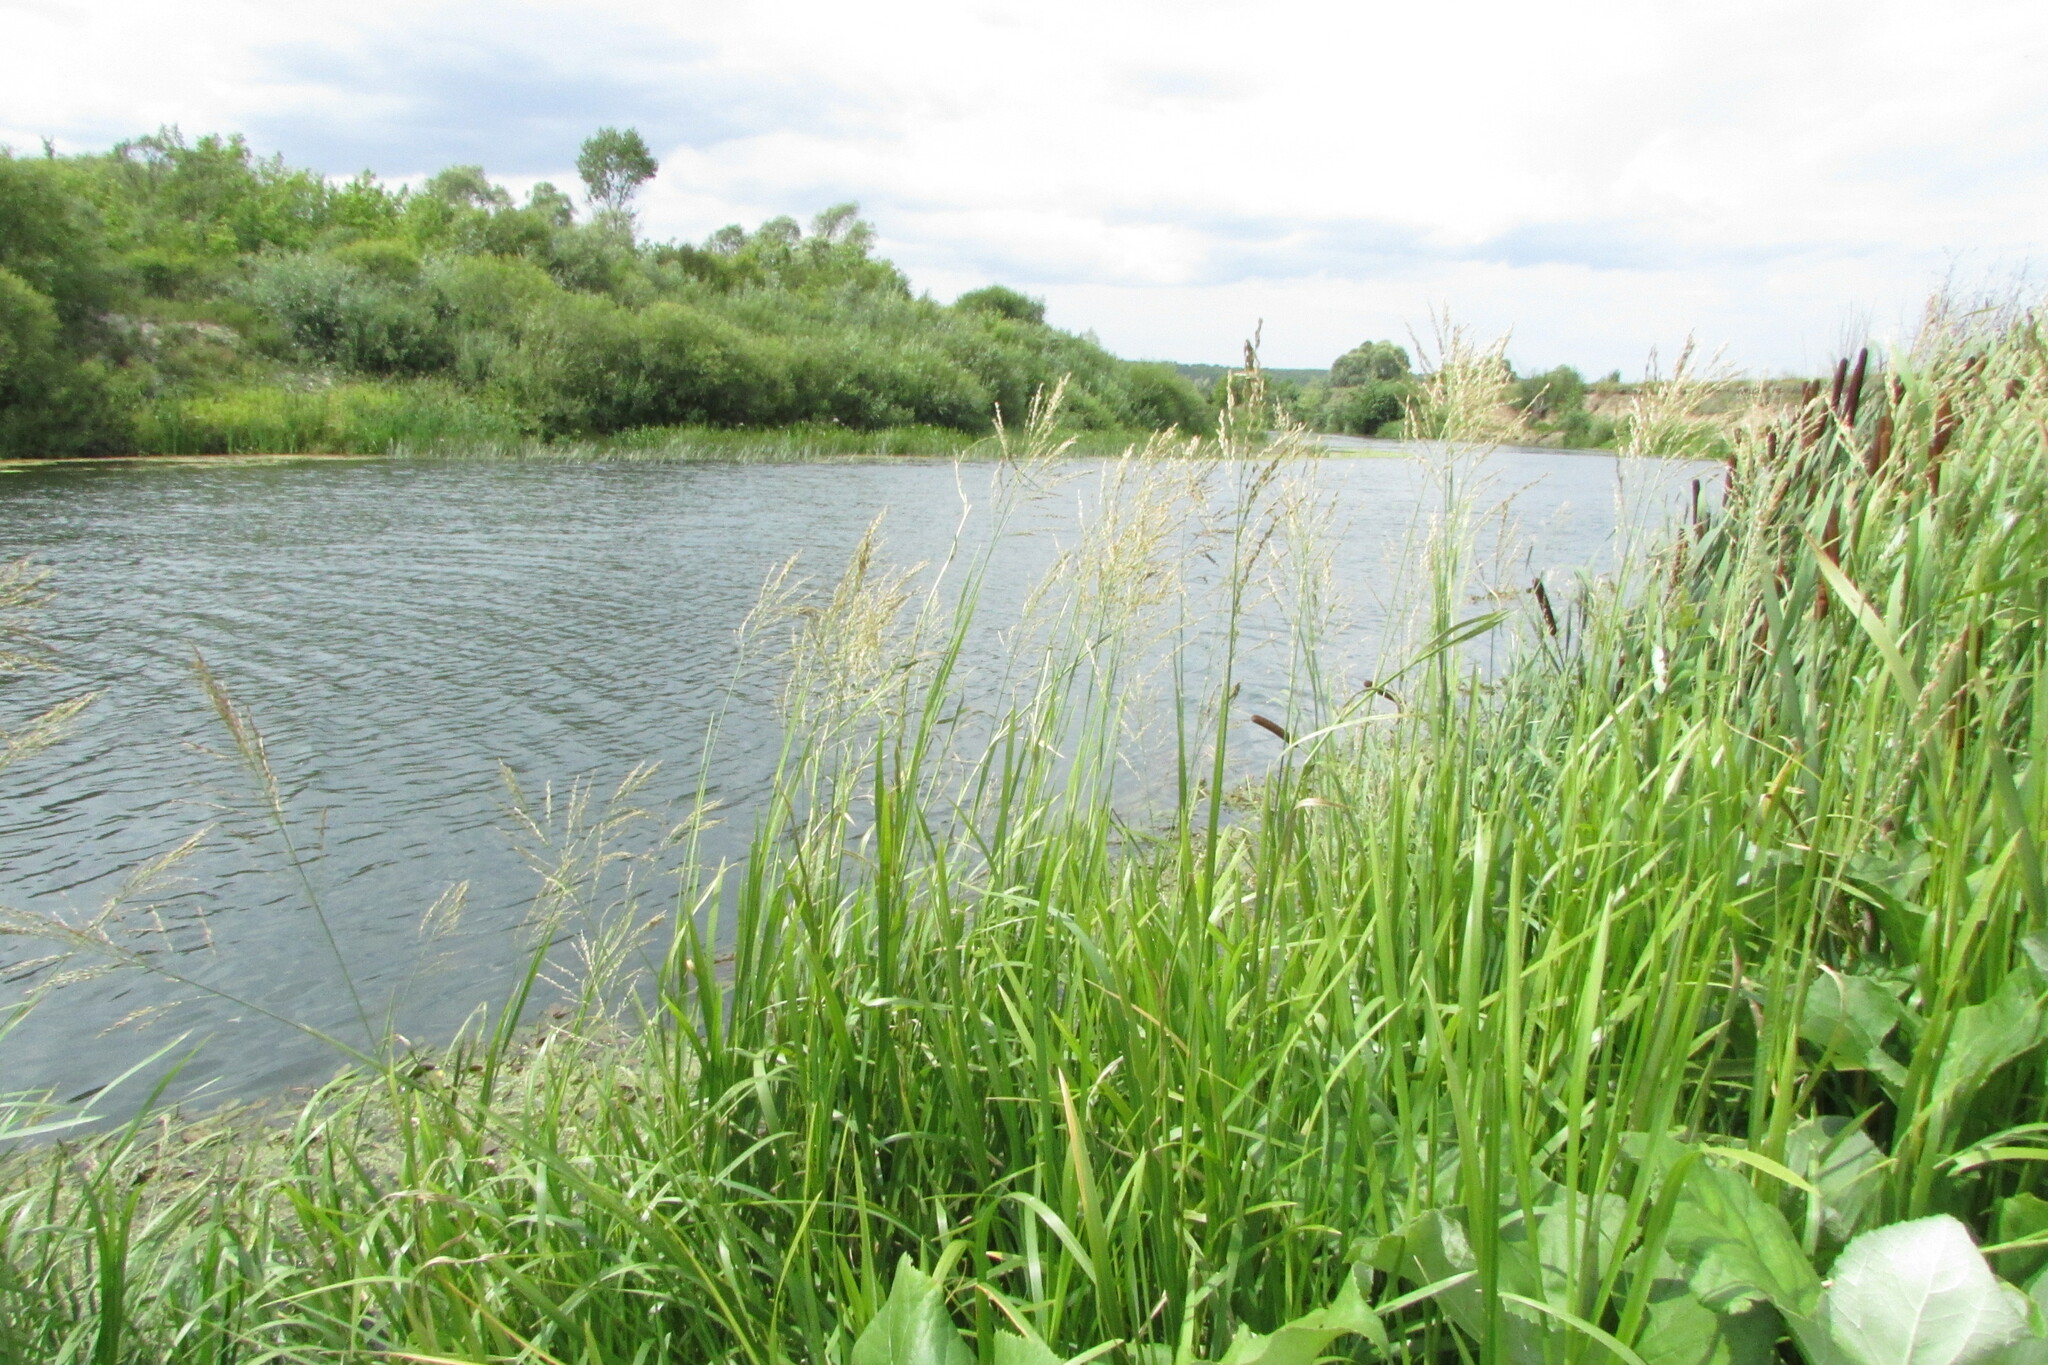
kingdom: Plantae
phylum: Tracheophyta
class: Liliopsida
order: Poales
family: Poaceae
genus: Glyceria
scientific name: Glyceria maxima
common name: Reed mannagrass
